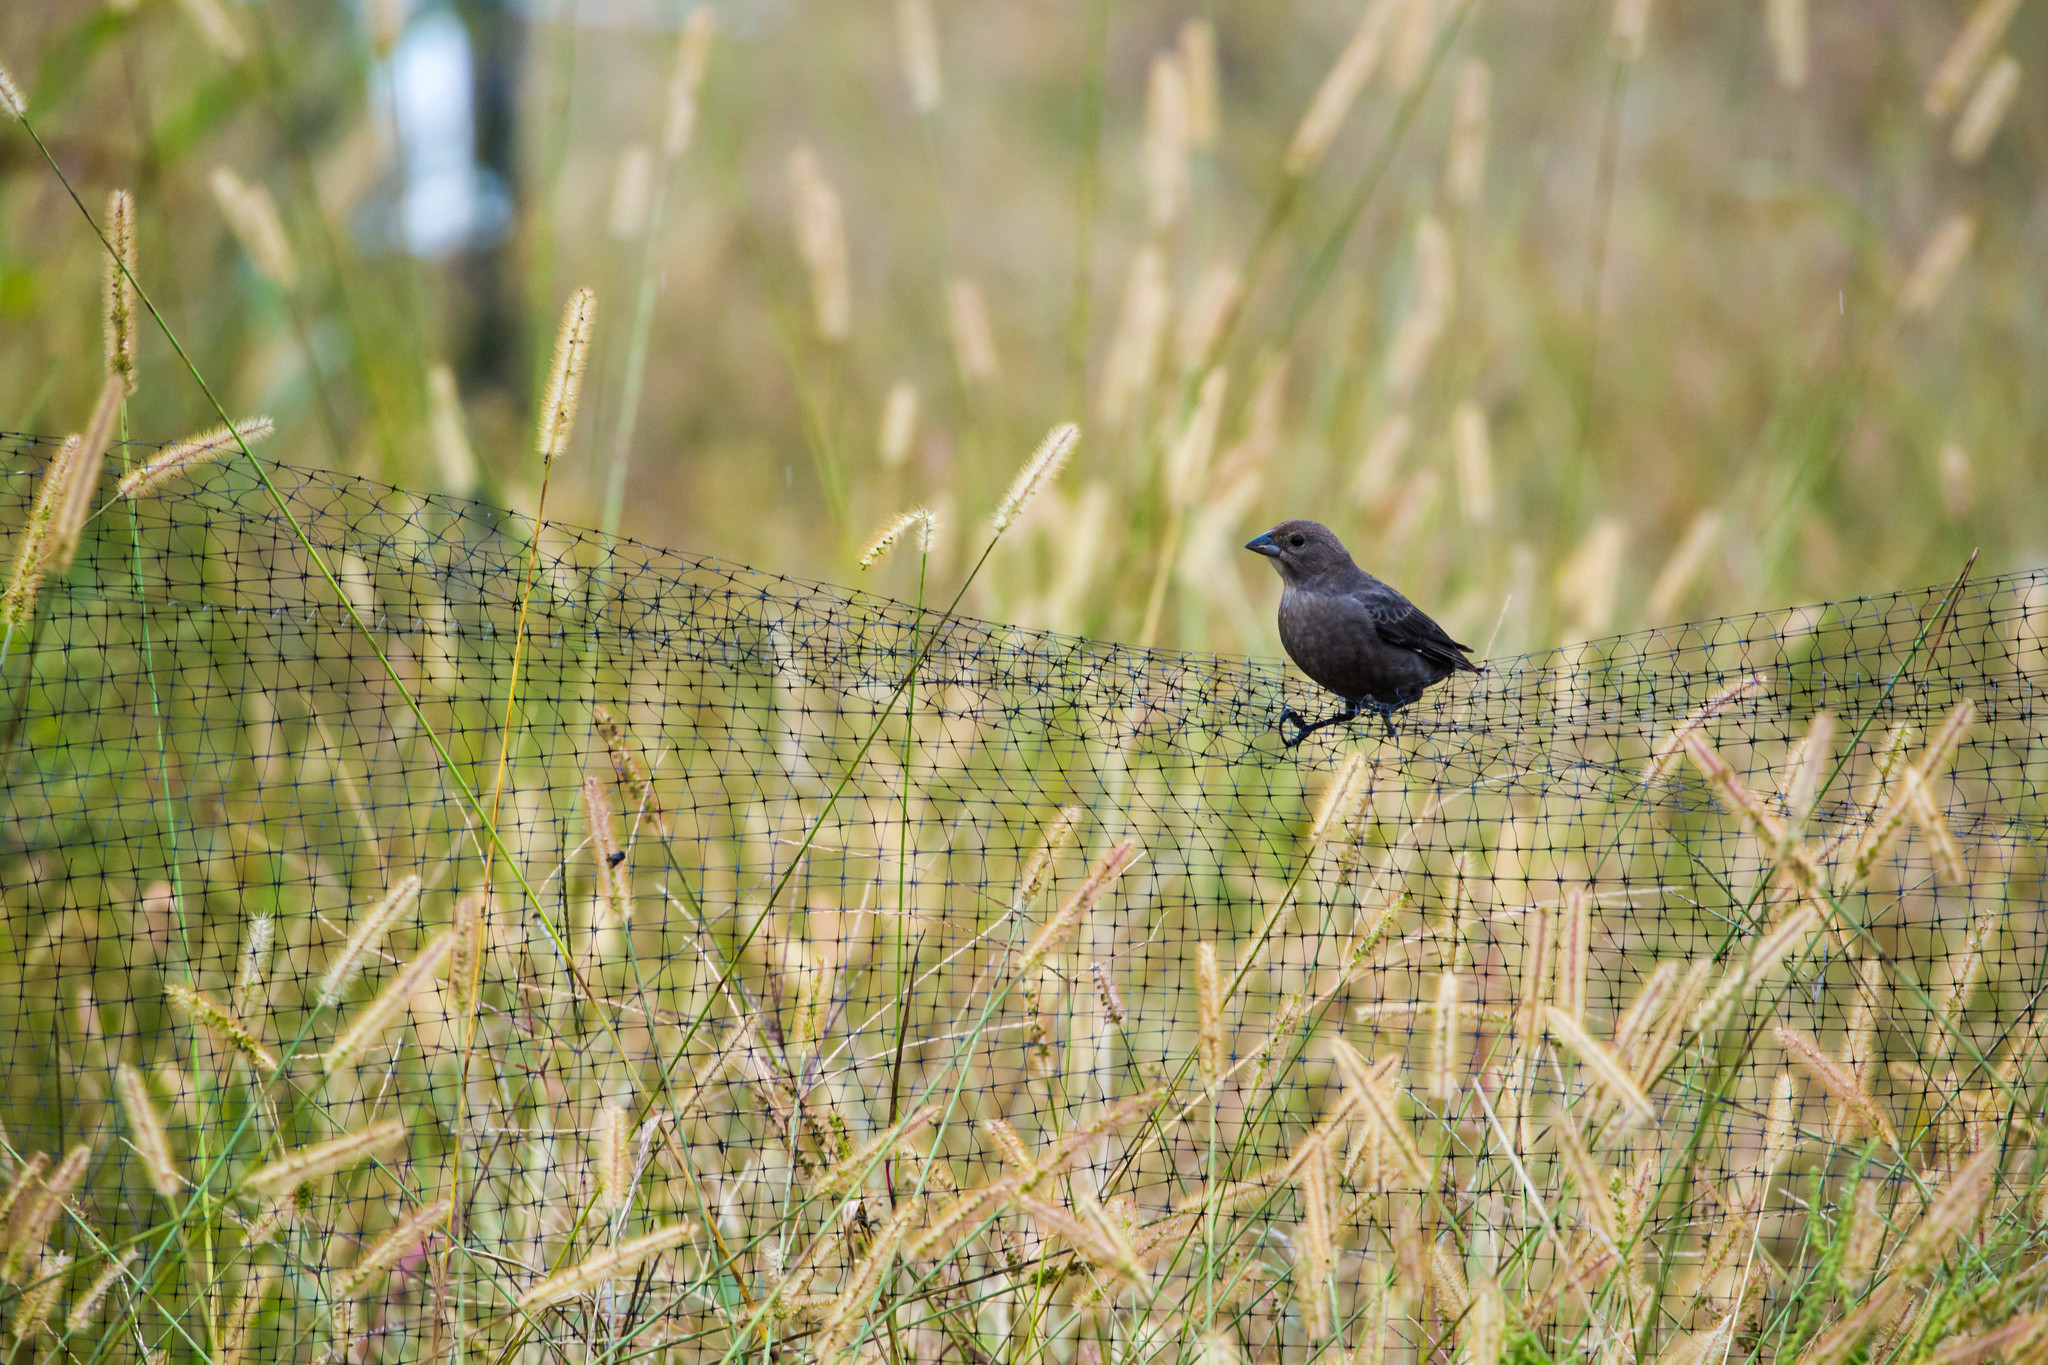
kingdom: Animalia
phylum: Chordata
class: Aves
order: Passeriformes
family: Icteridae
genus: Molothrus
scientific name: Molothrus ater
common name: Brown-headed cowbird
